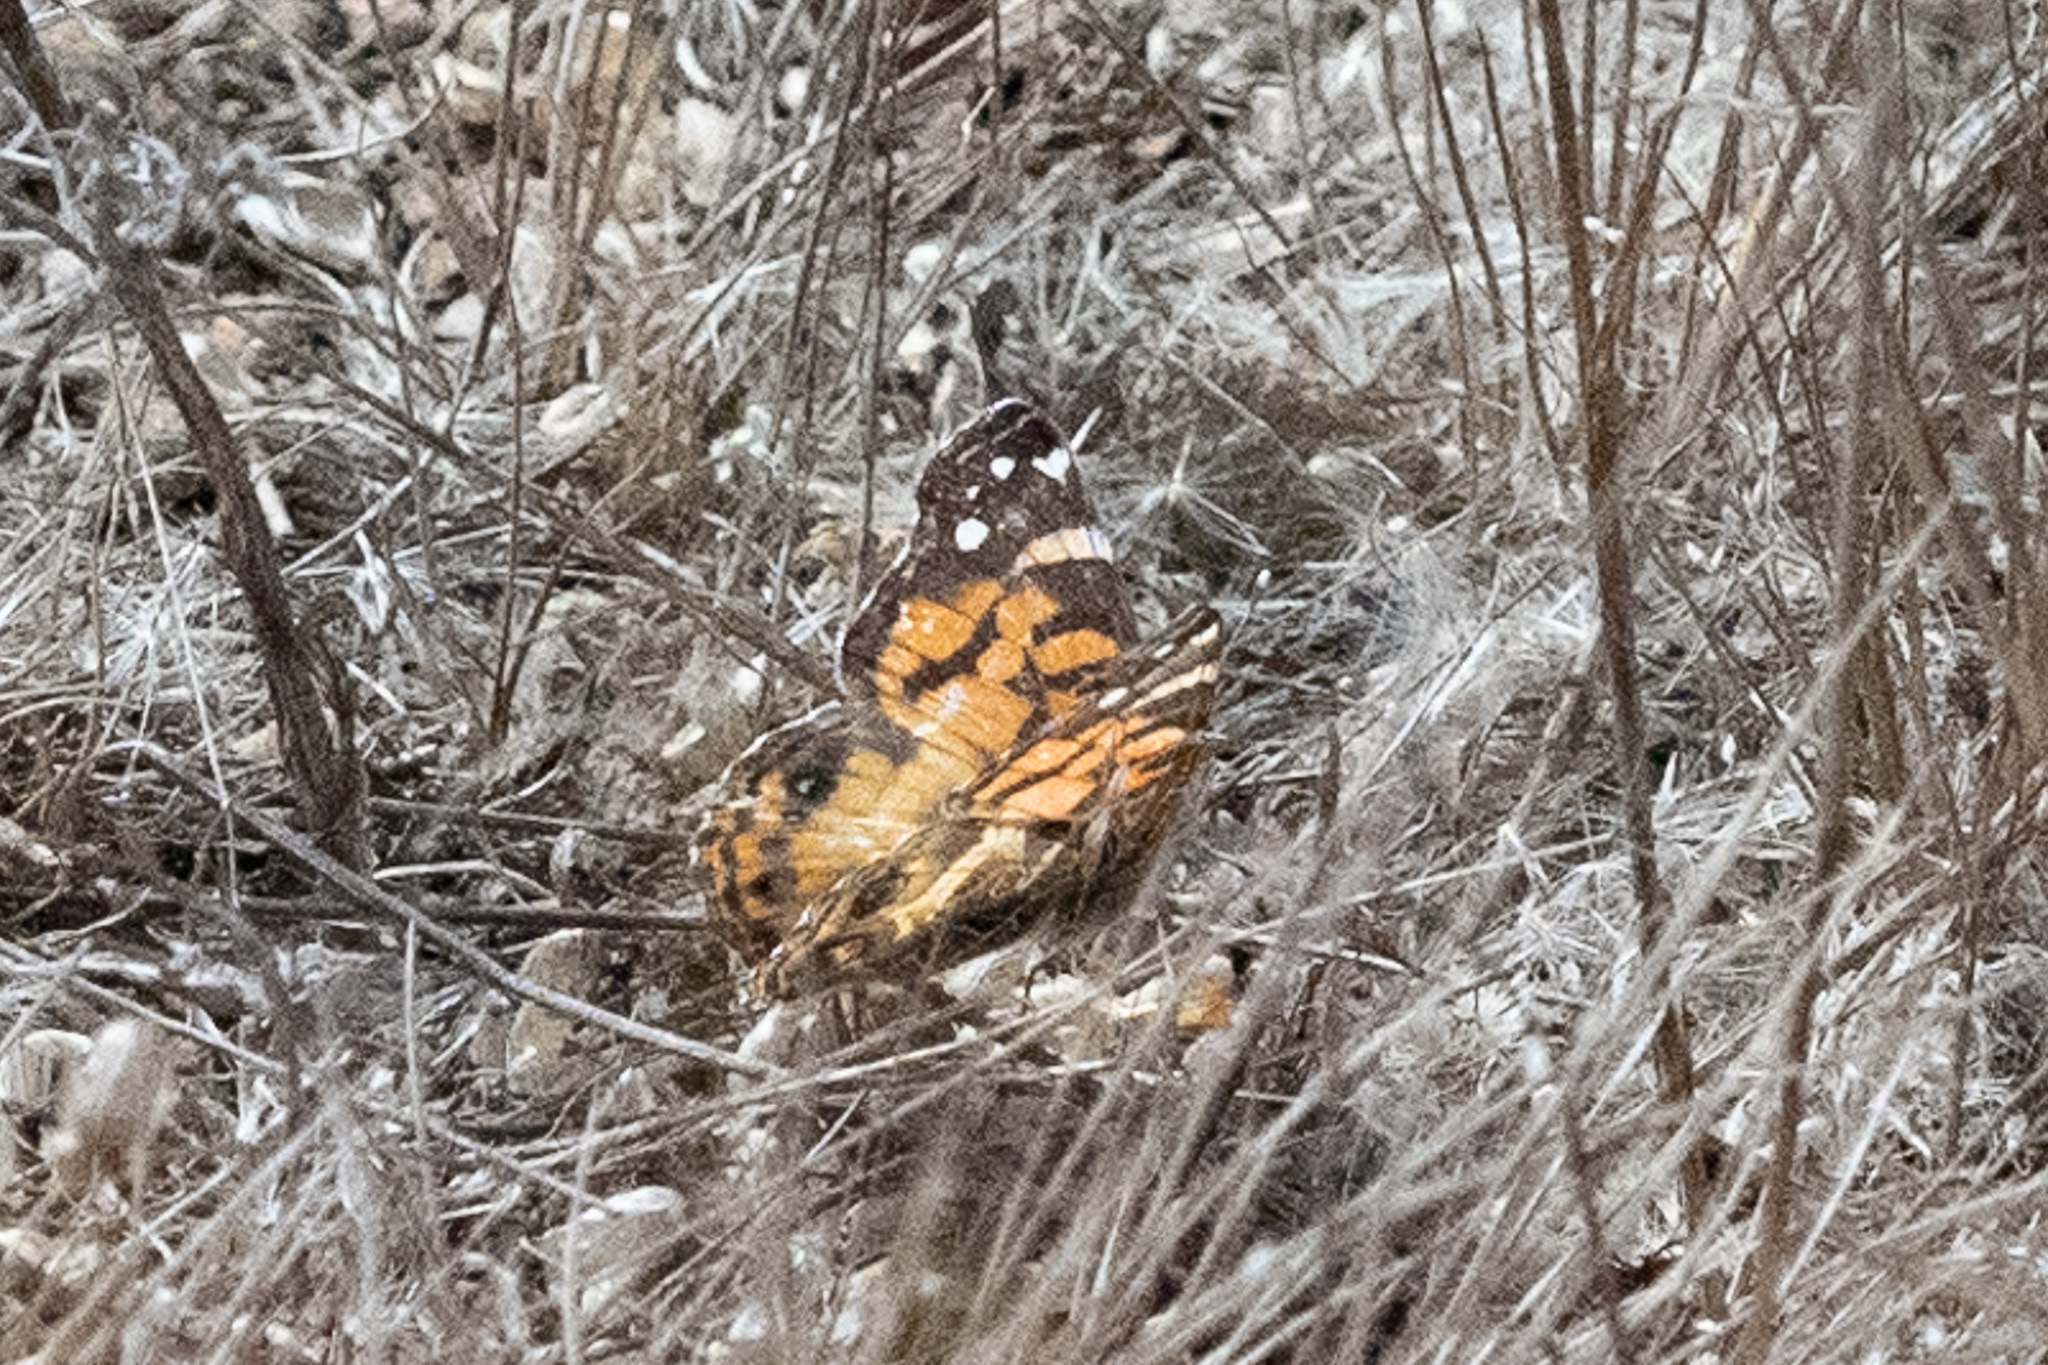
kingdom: Animalia
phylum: Arthropoda
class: Insecta
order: Lepidoptera
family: Nymphalidae
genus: Vanessa
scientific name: Vanessa virginiensis
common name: American lady
